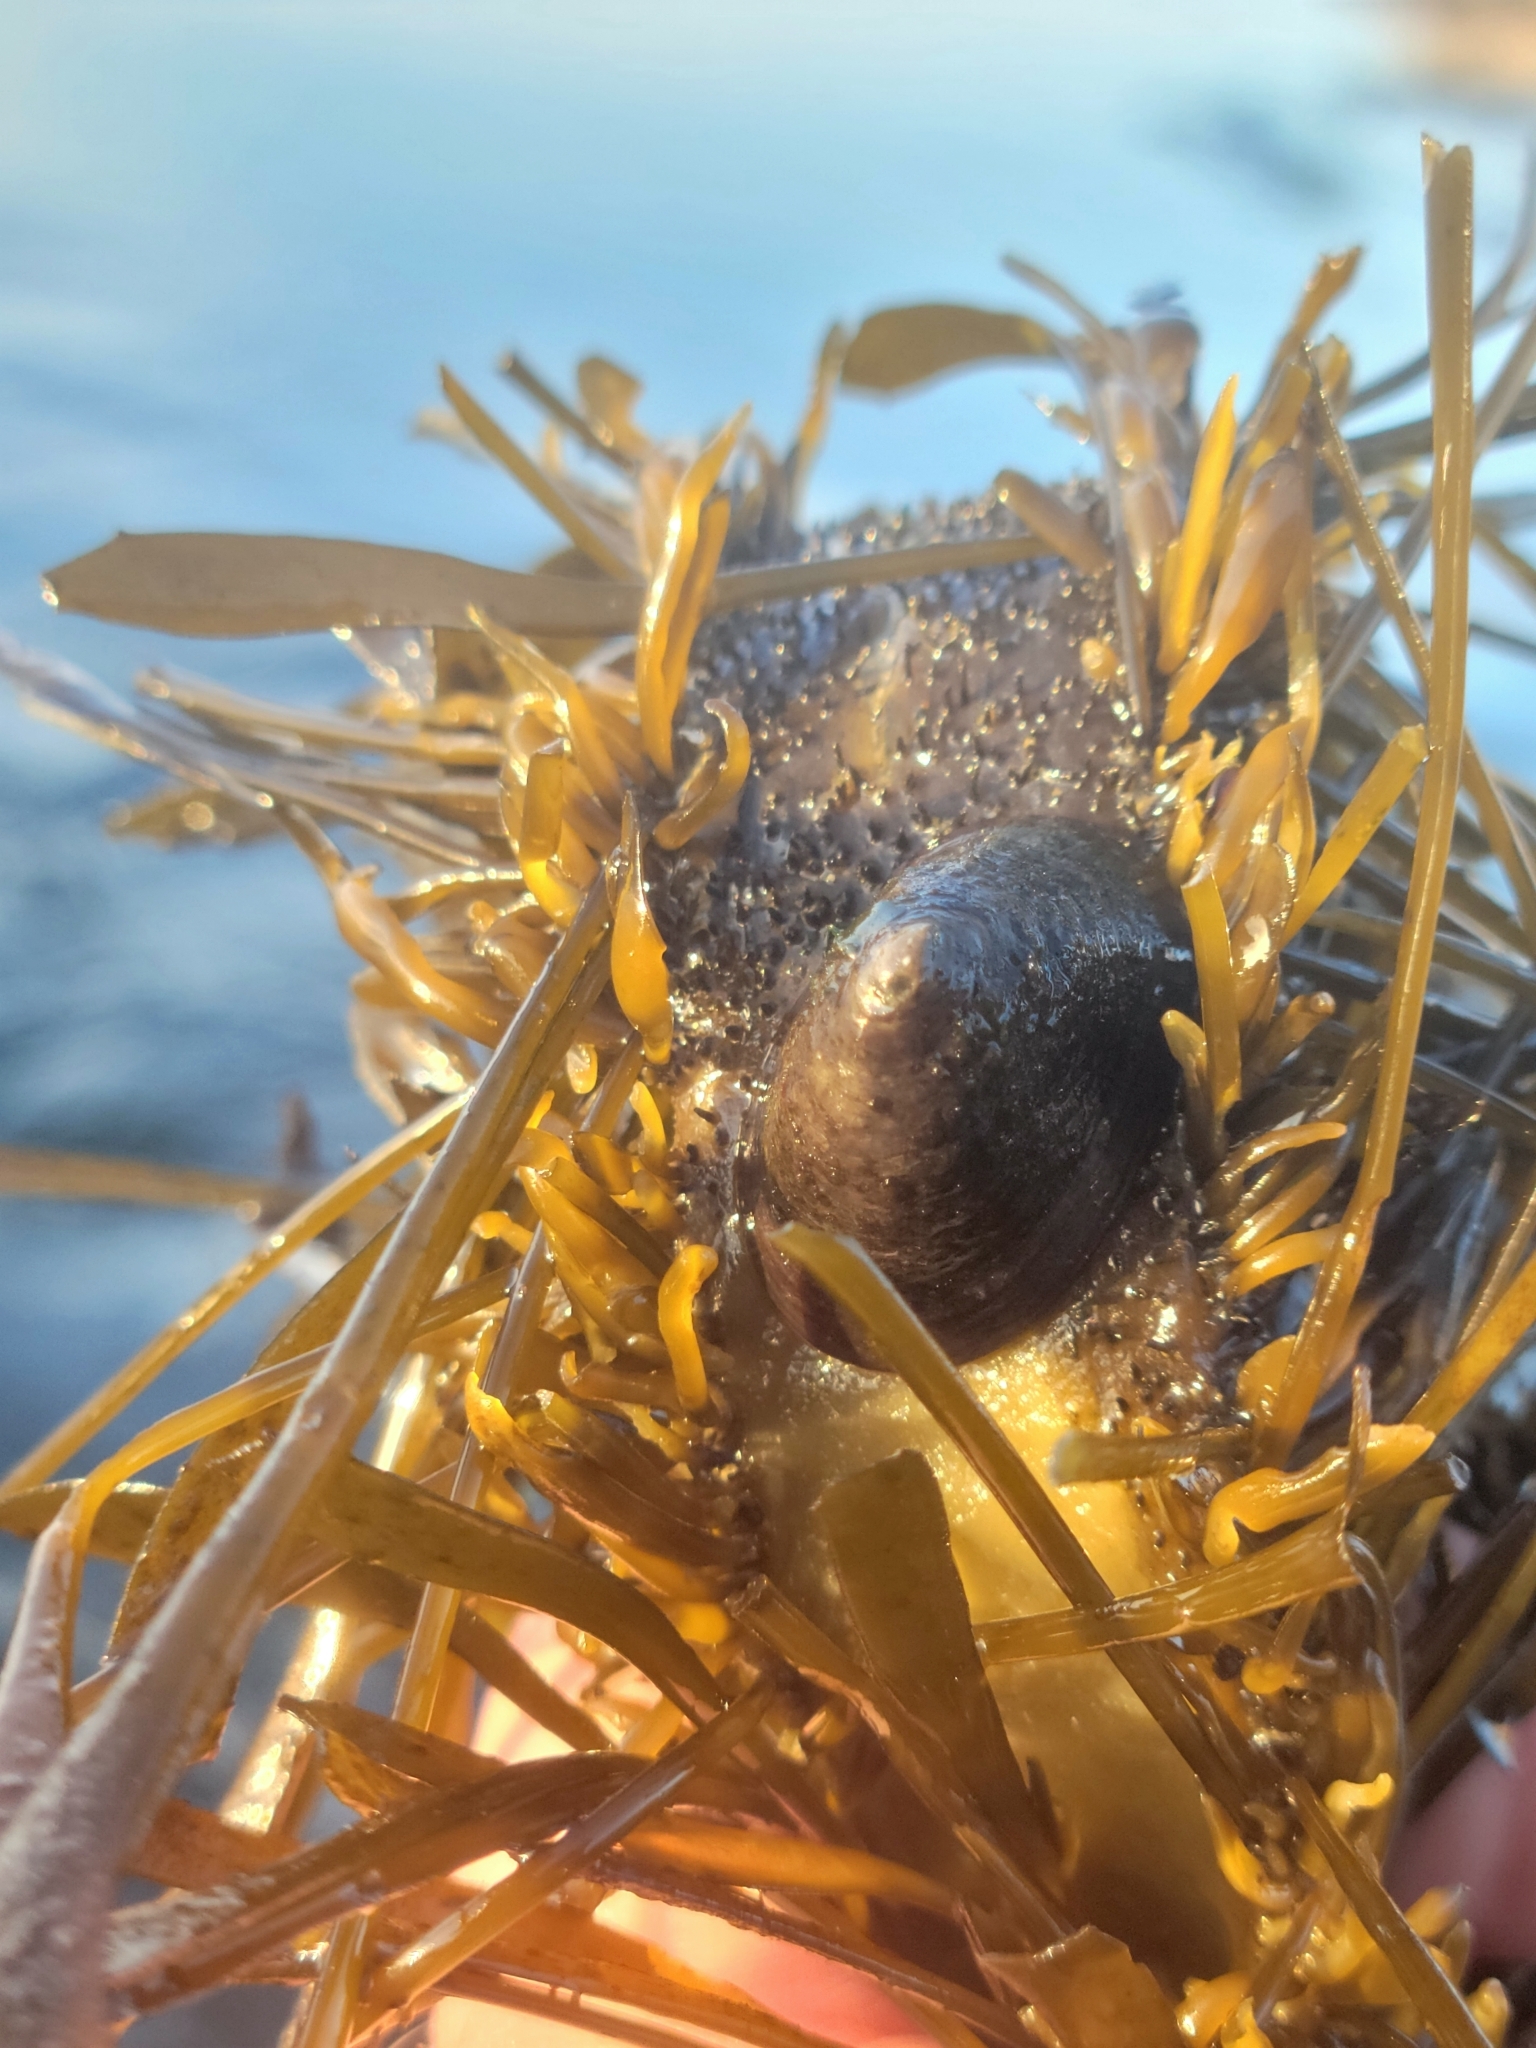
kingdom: Animalia
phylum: Mollusca
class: Gastropoda
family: Lottiidae
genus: Discurria
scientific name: Discurria insessa
